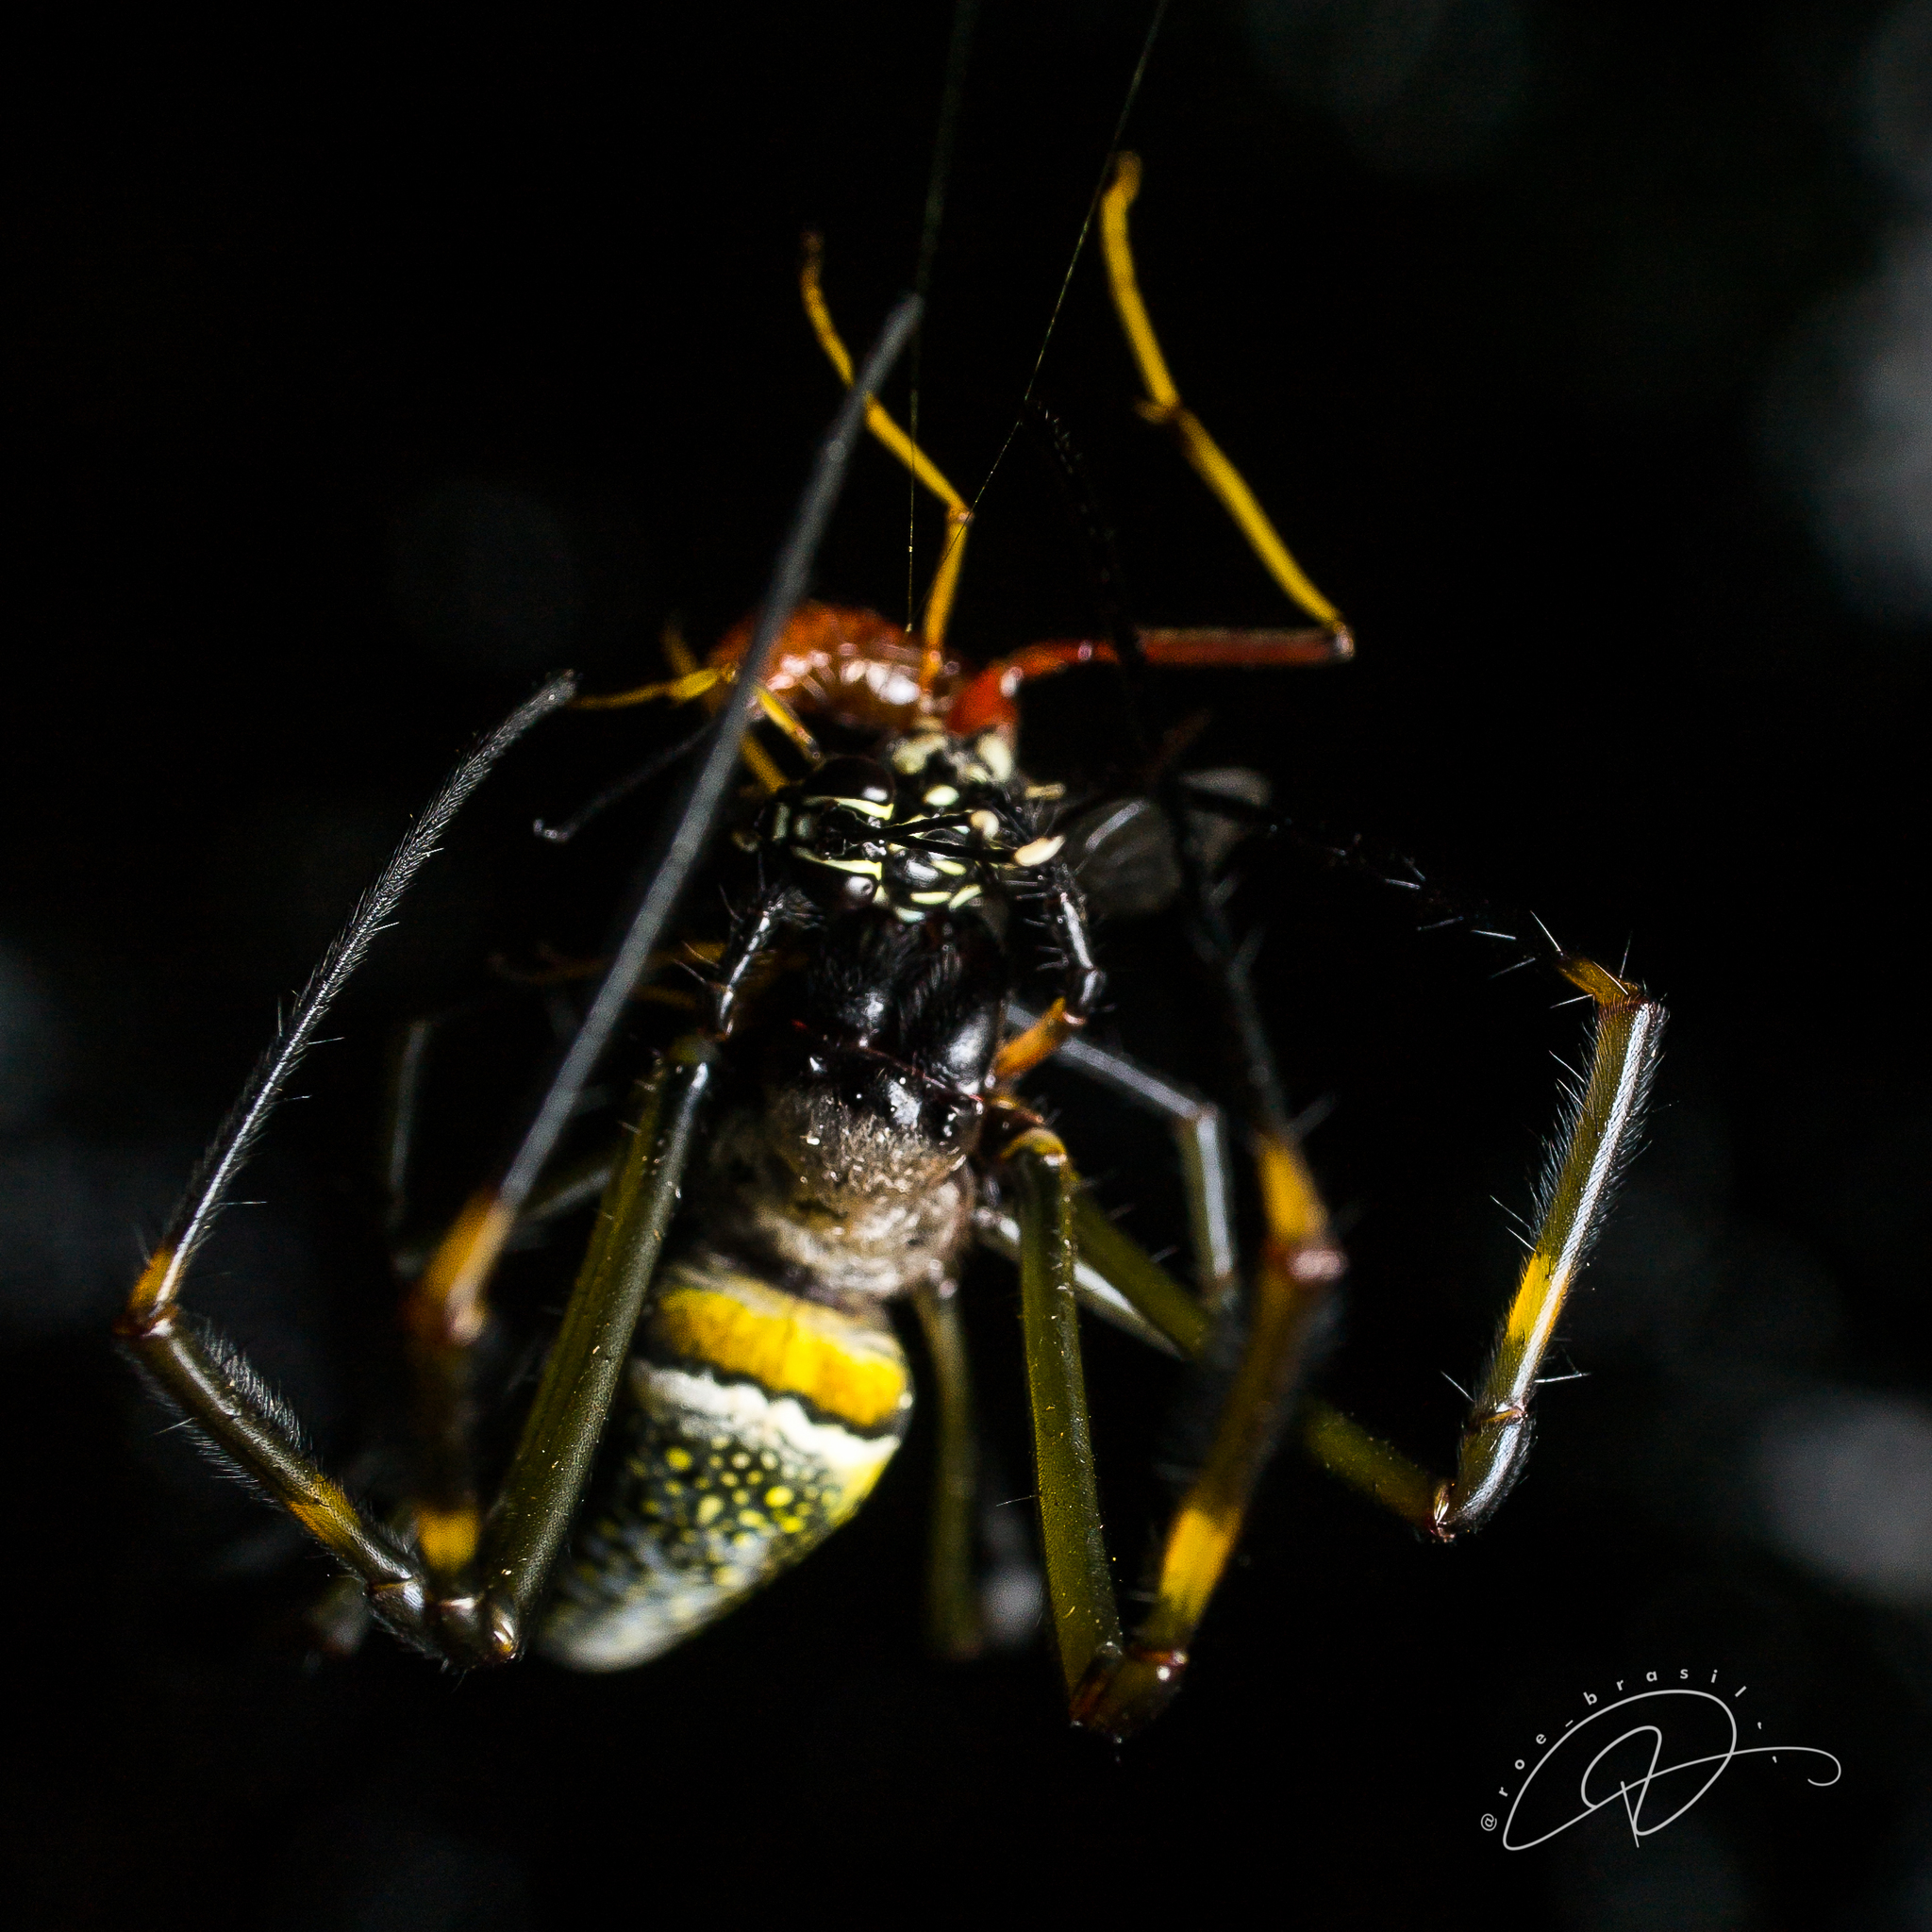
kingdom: Animalia
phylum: Arthropoda
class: Arachnida
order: Araneae
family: Araneidae
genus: Trichonephila
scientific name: Trichonephila clavipes
